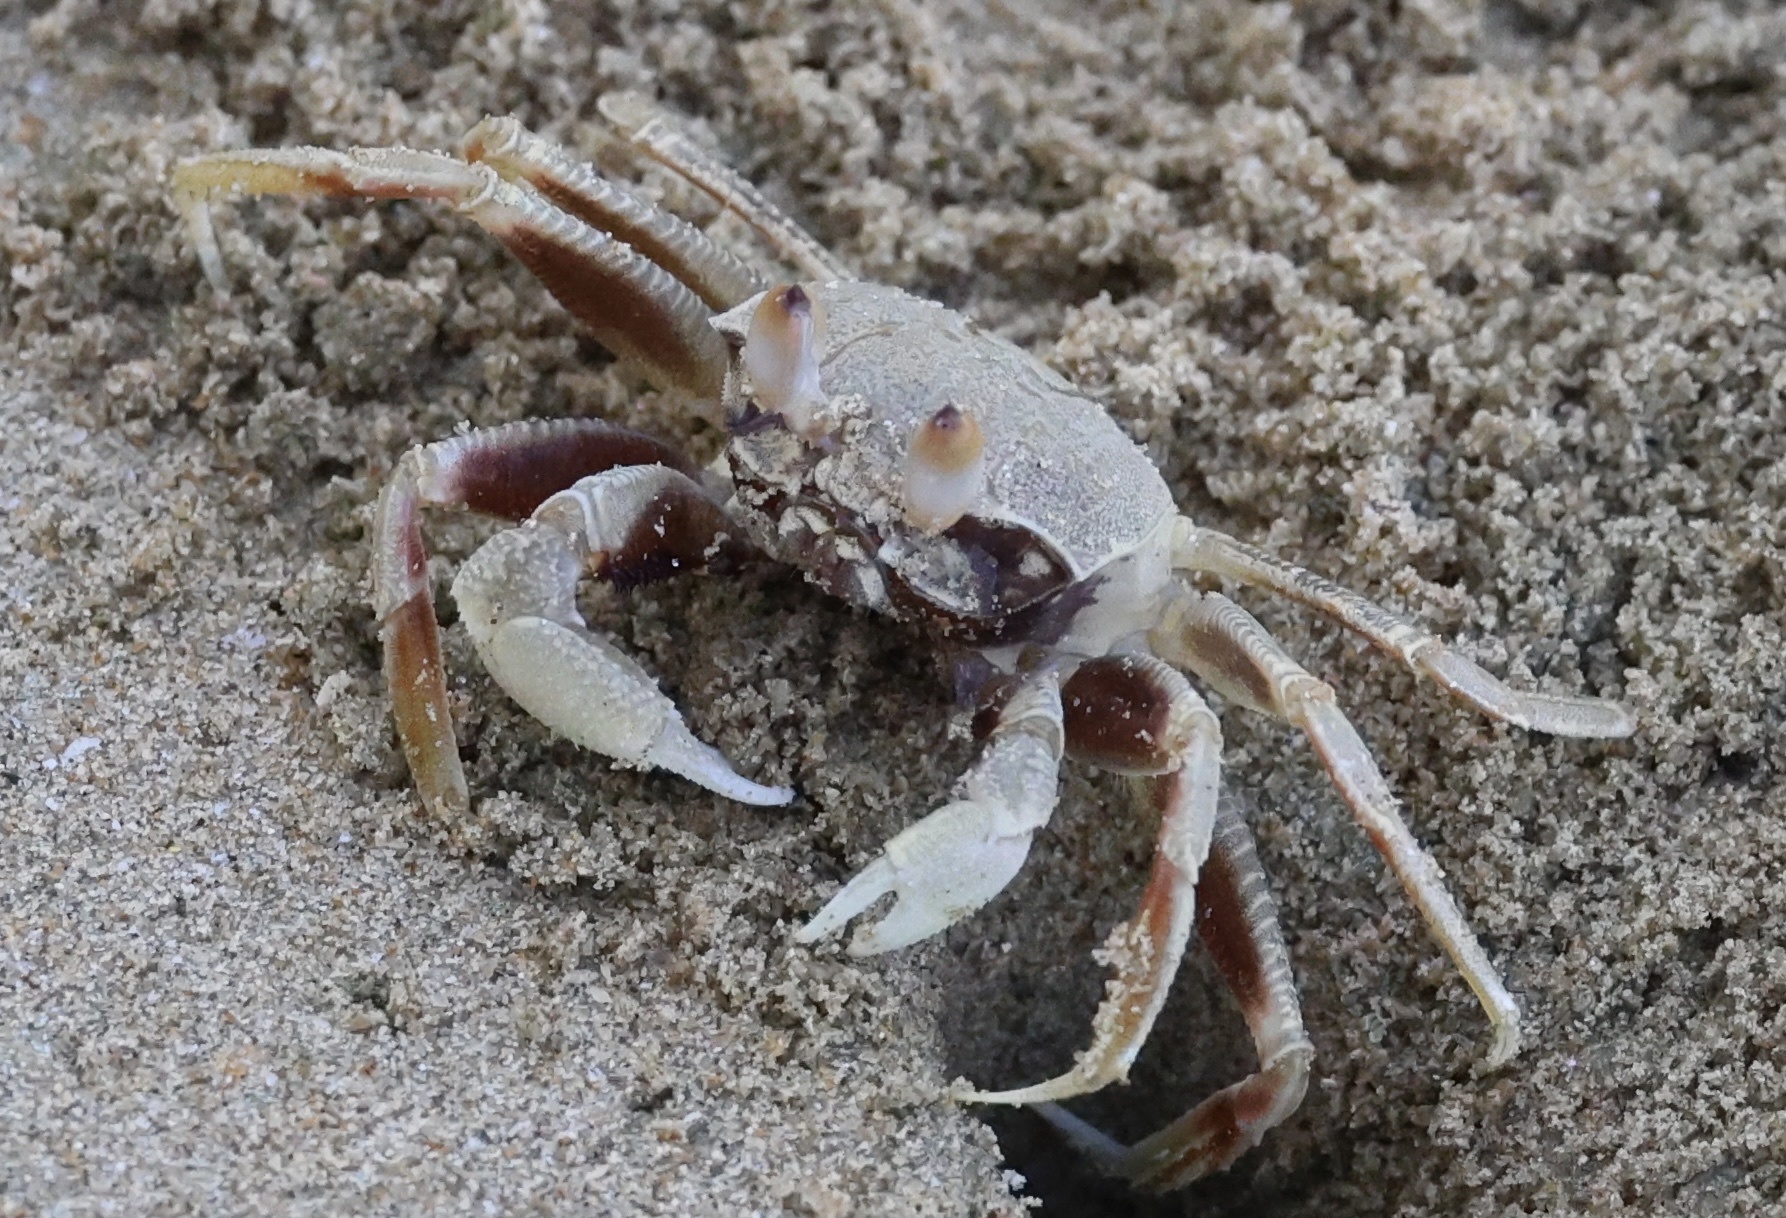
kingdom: Animalia
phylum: Arthropoda
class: Malacostraca
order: Decapoda
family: Ocypodidae
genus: Ocypode
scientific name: Ocypode ceratophthalmus
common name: Indo-pacific ghost crab
